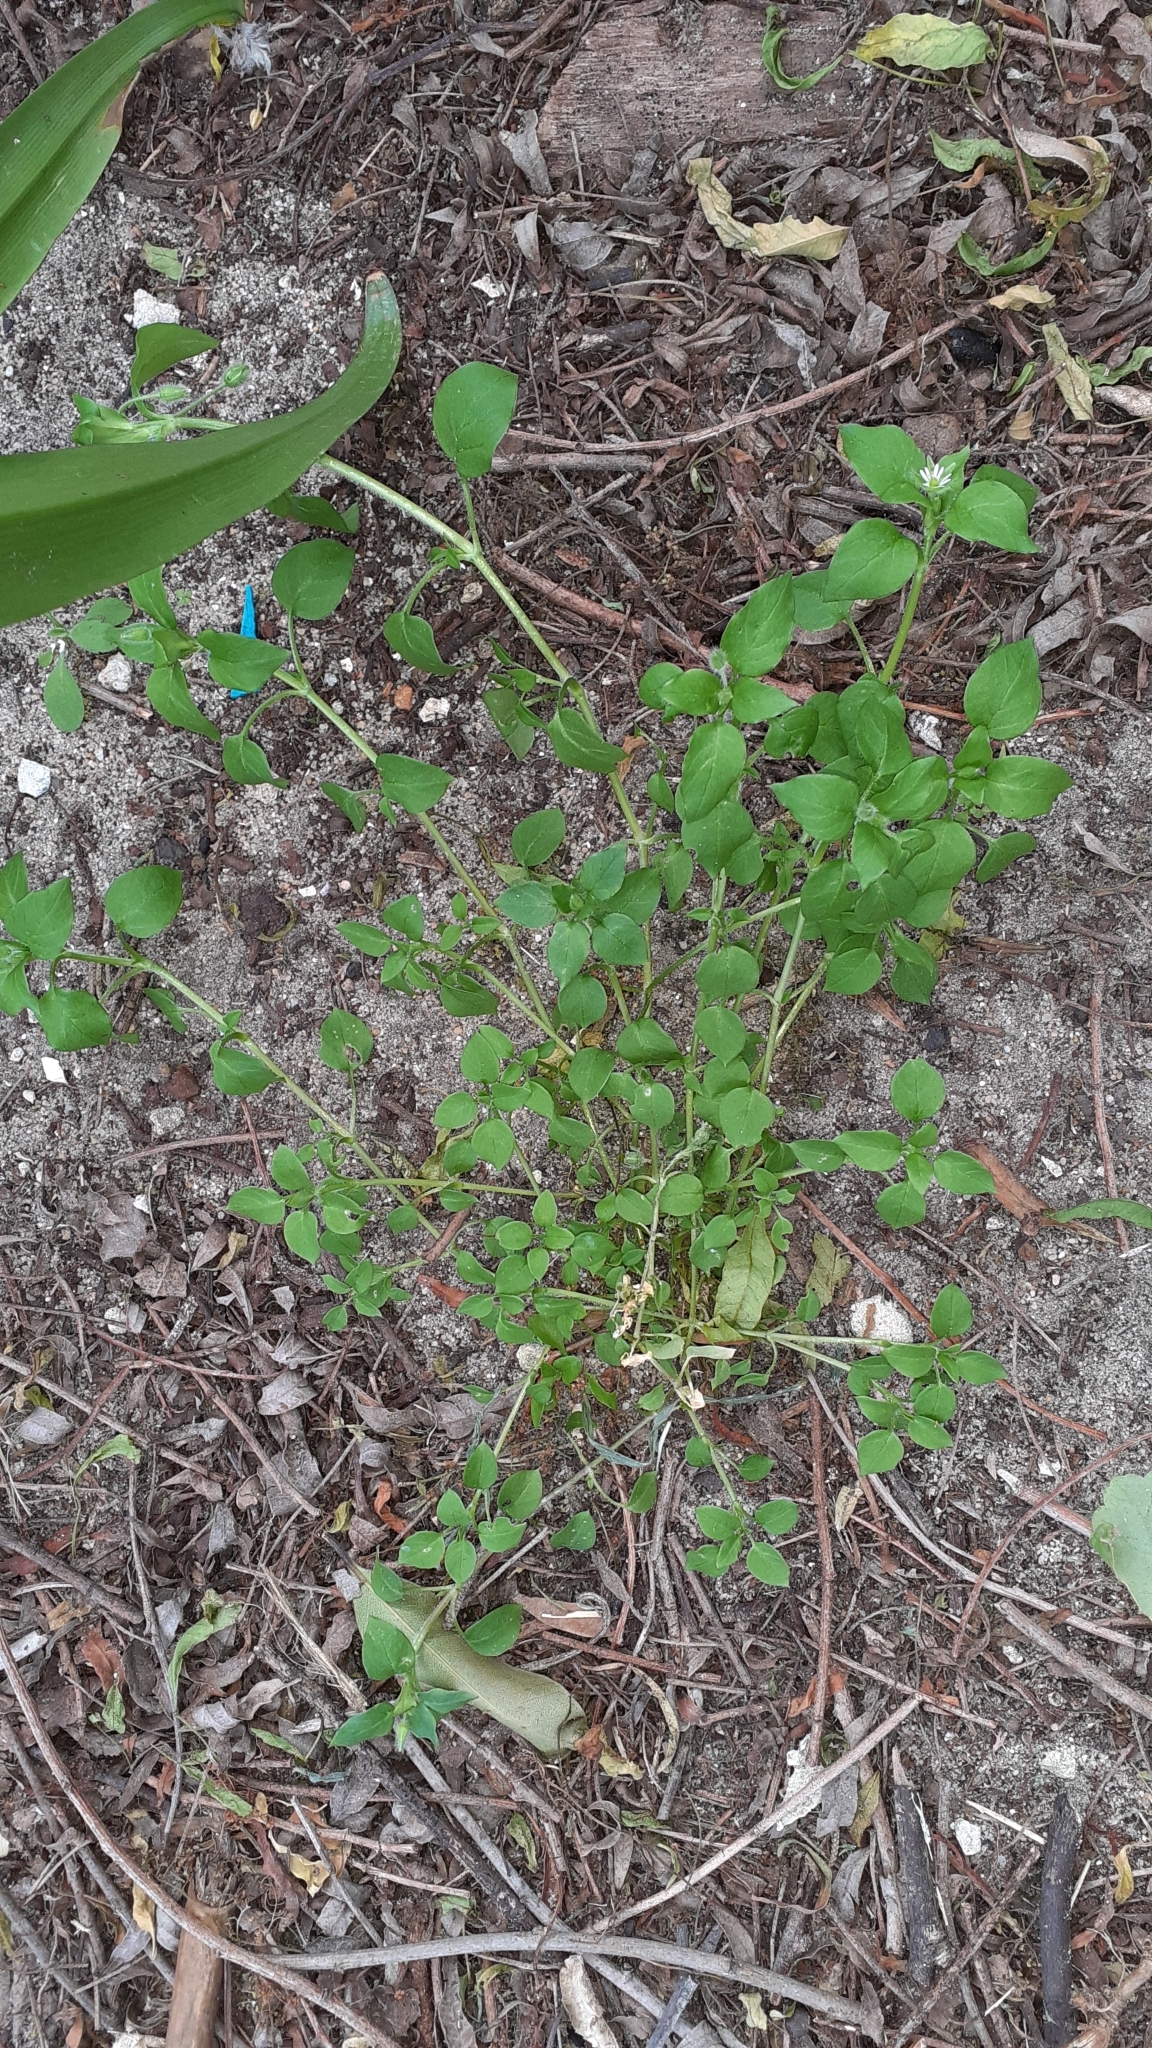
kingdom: Plantae
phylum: Tracheophyta
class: Magnoliopsida
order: Caryophyllales
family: Caryophyllaceae
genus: Stellaria
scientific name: Stellaria media
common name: Common chickweed
